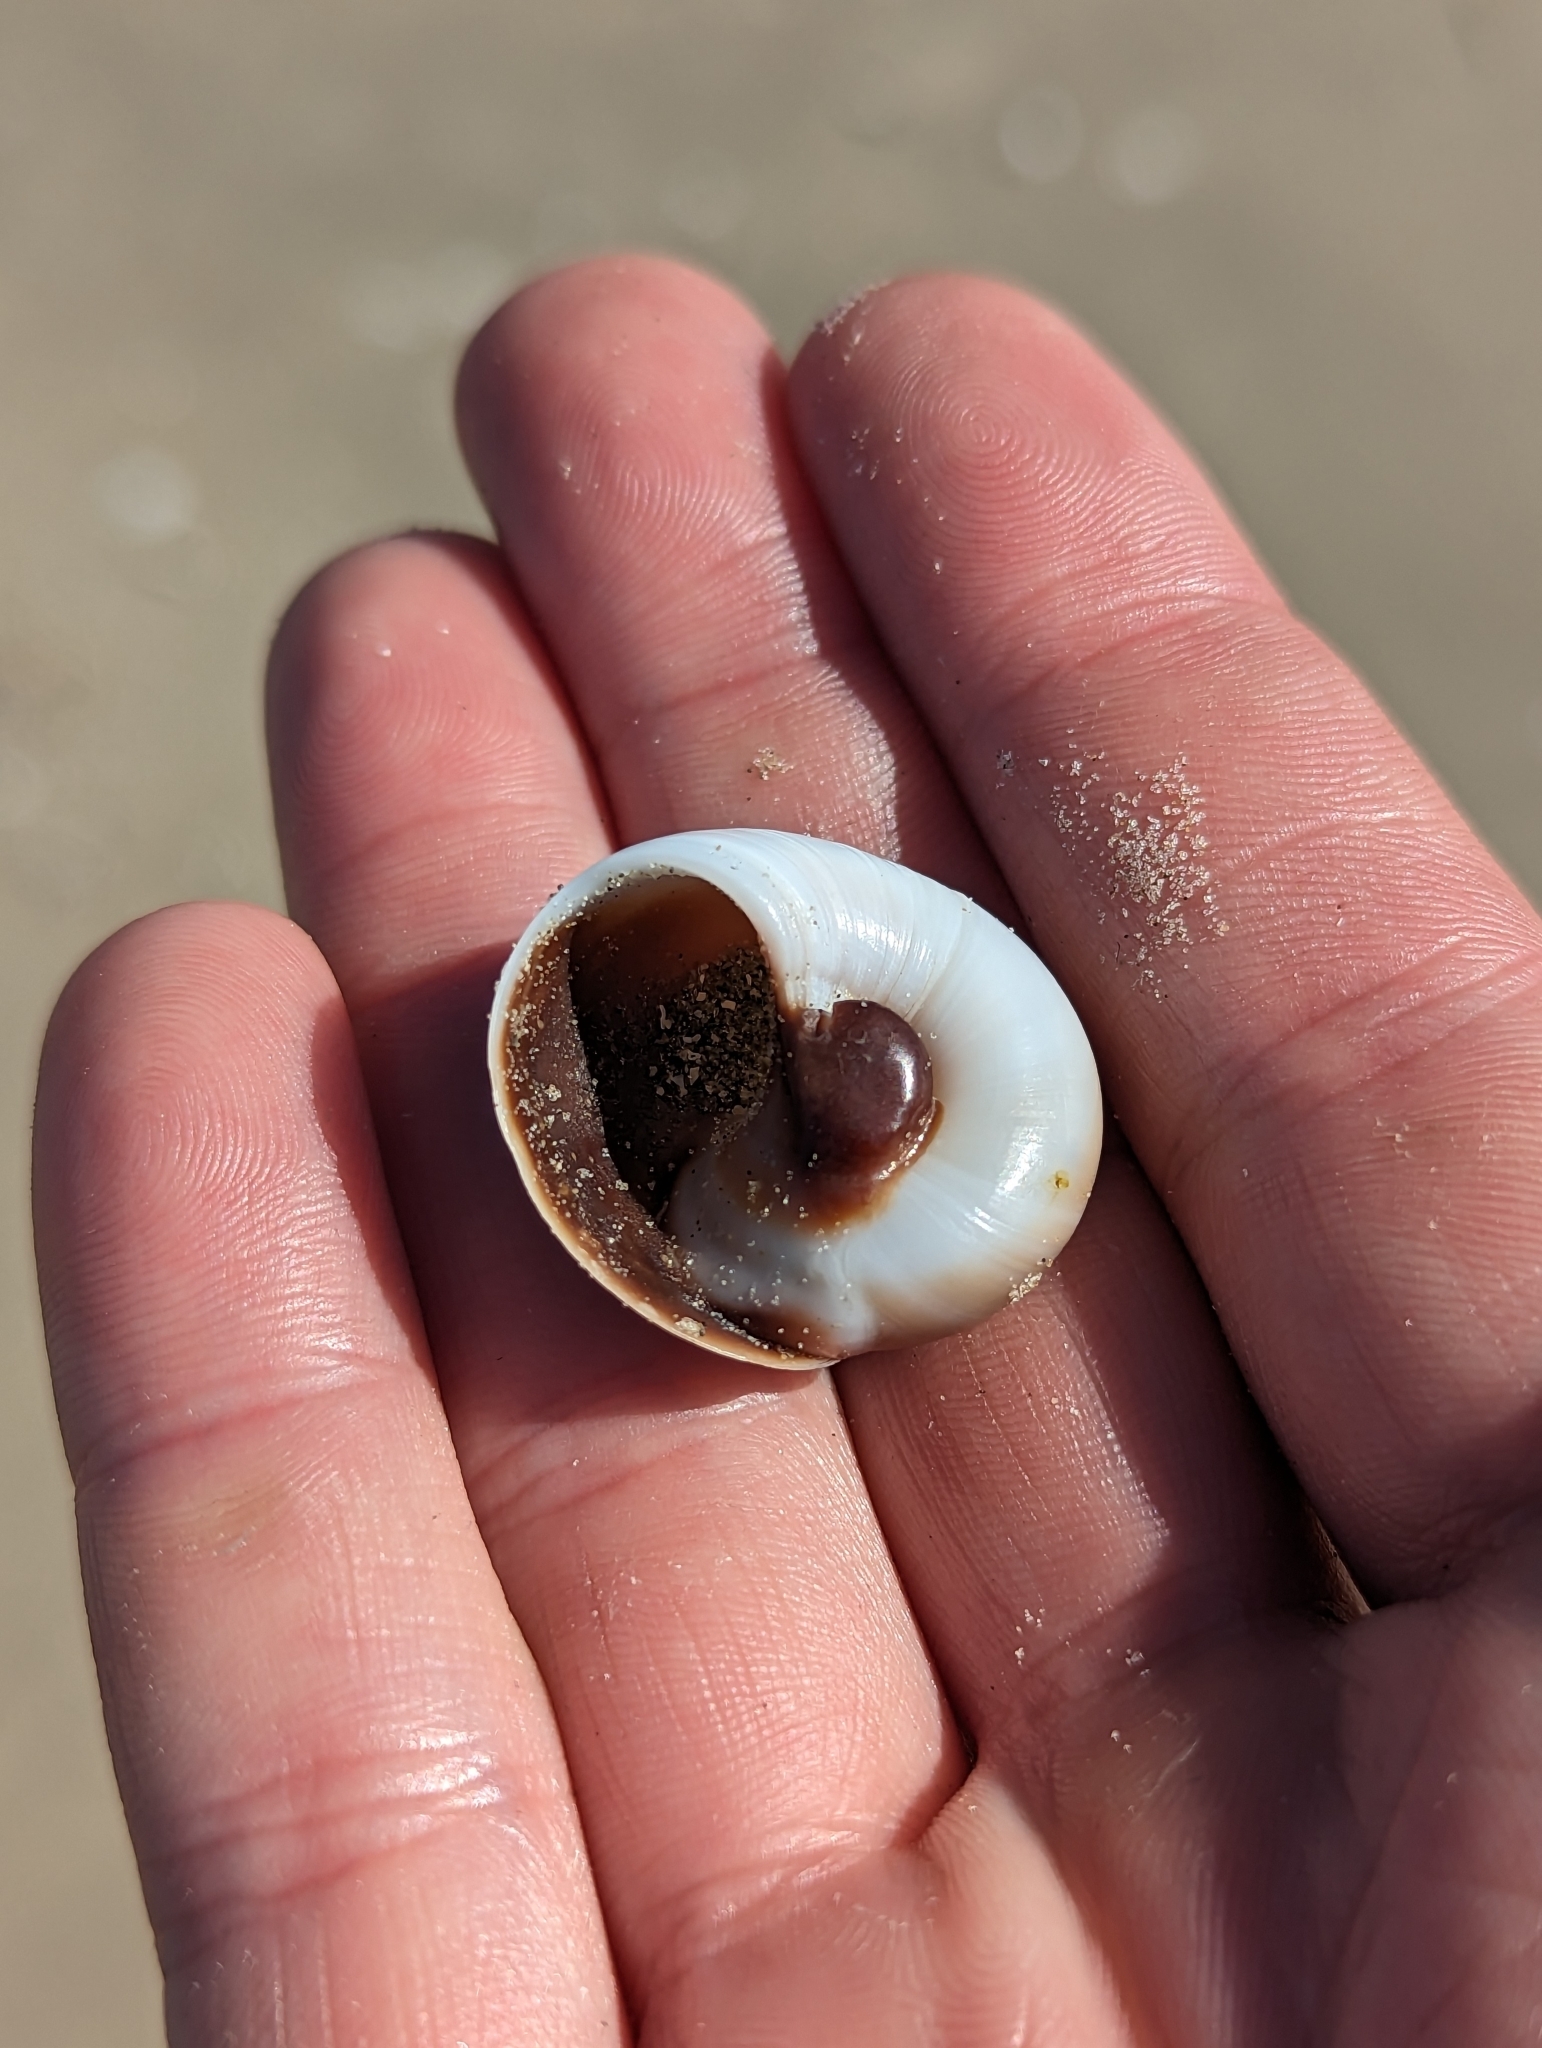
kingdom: Animalia
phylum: Mollusca
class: Gastropoda
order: Littorinimorpha
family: Naticidae
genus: Neverita
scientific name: Neverita duplicata
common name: Lobed moonsnail
